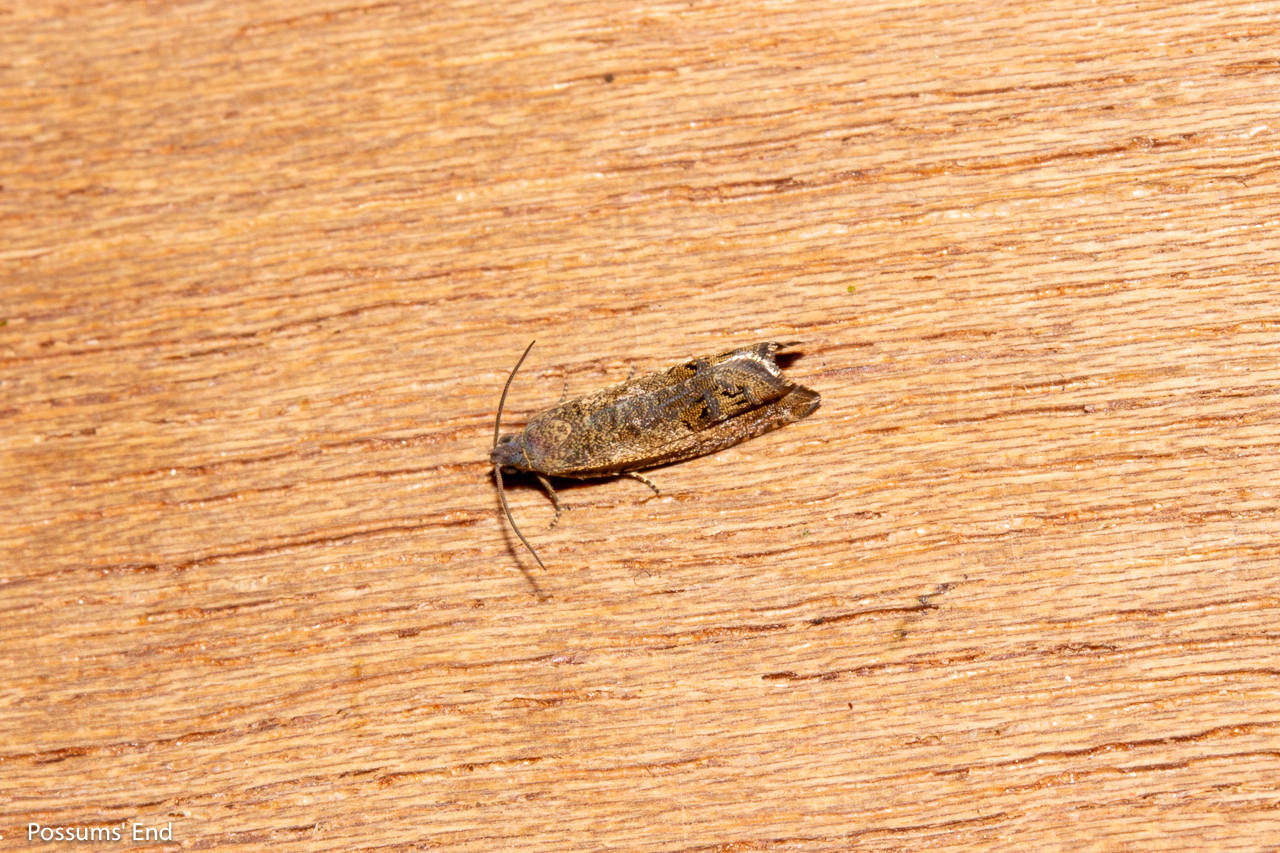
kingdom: Animalia
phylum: Arthropoda
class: Insecta
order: Lepidoptera
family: Tortricidae
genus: Cydia
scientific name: Cydia succedana
